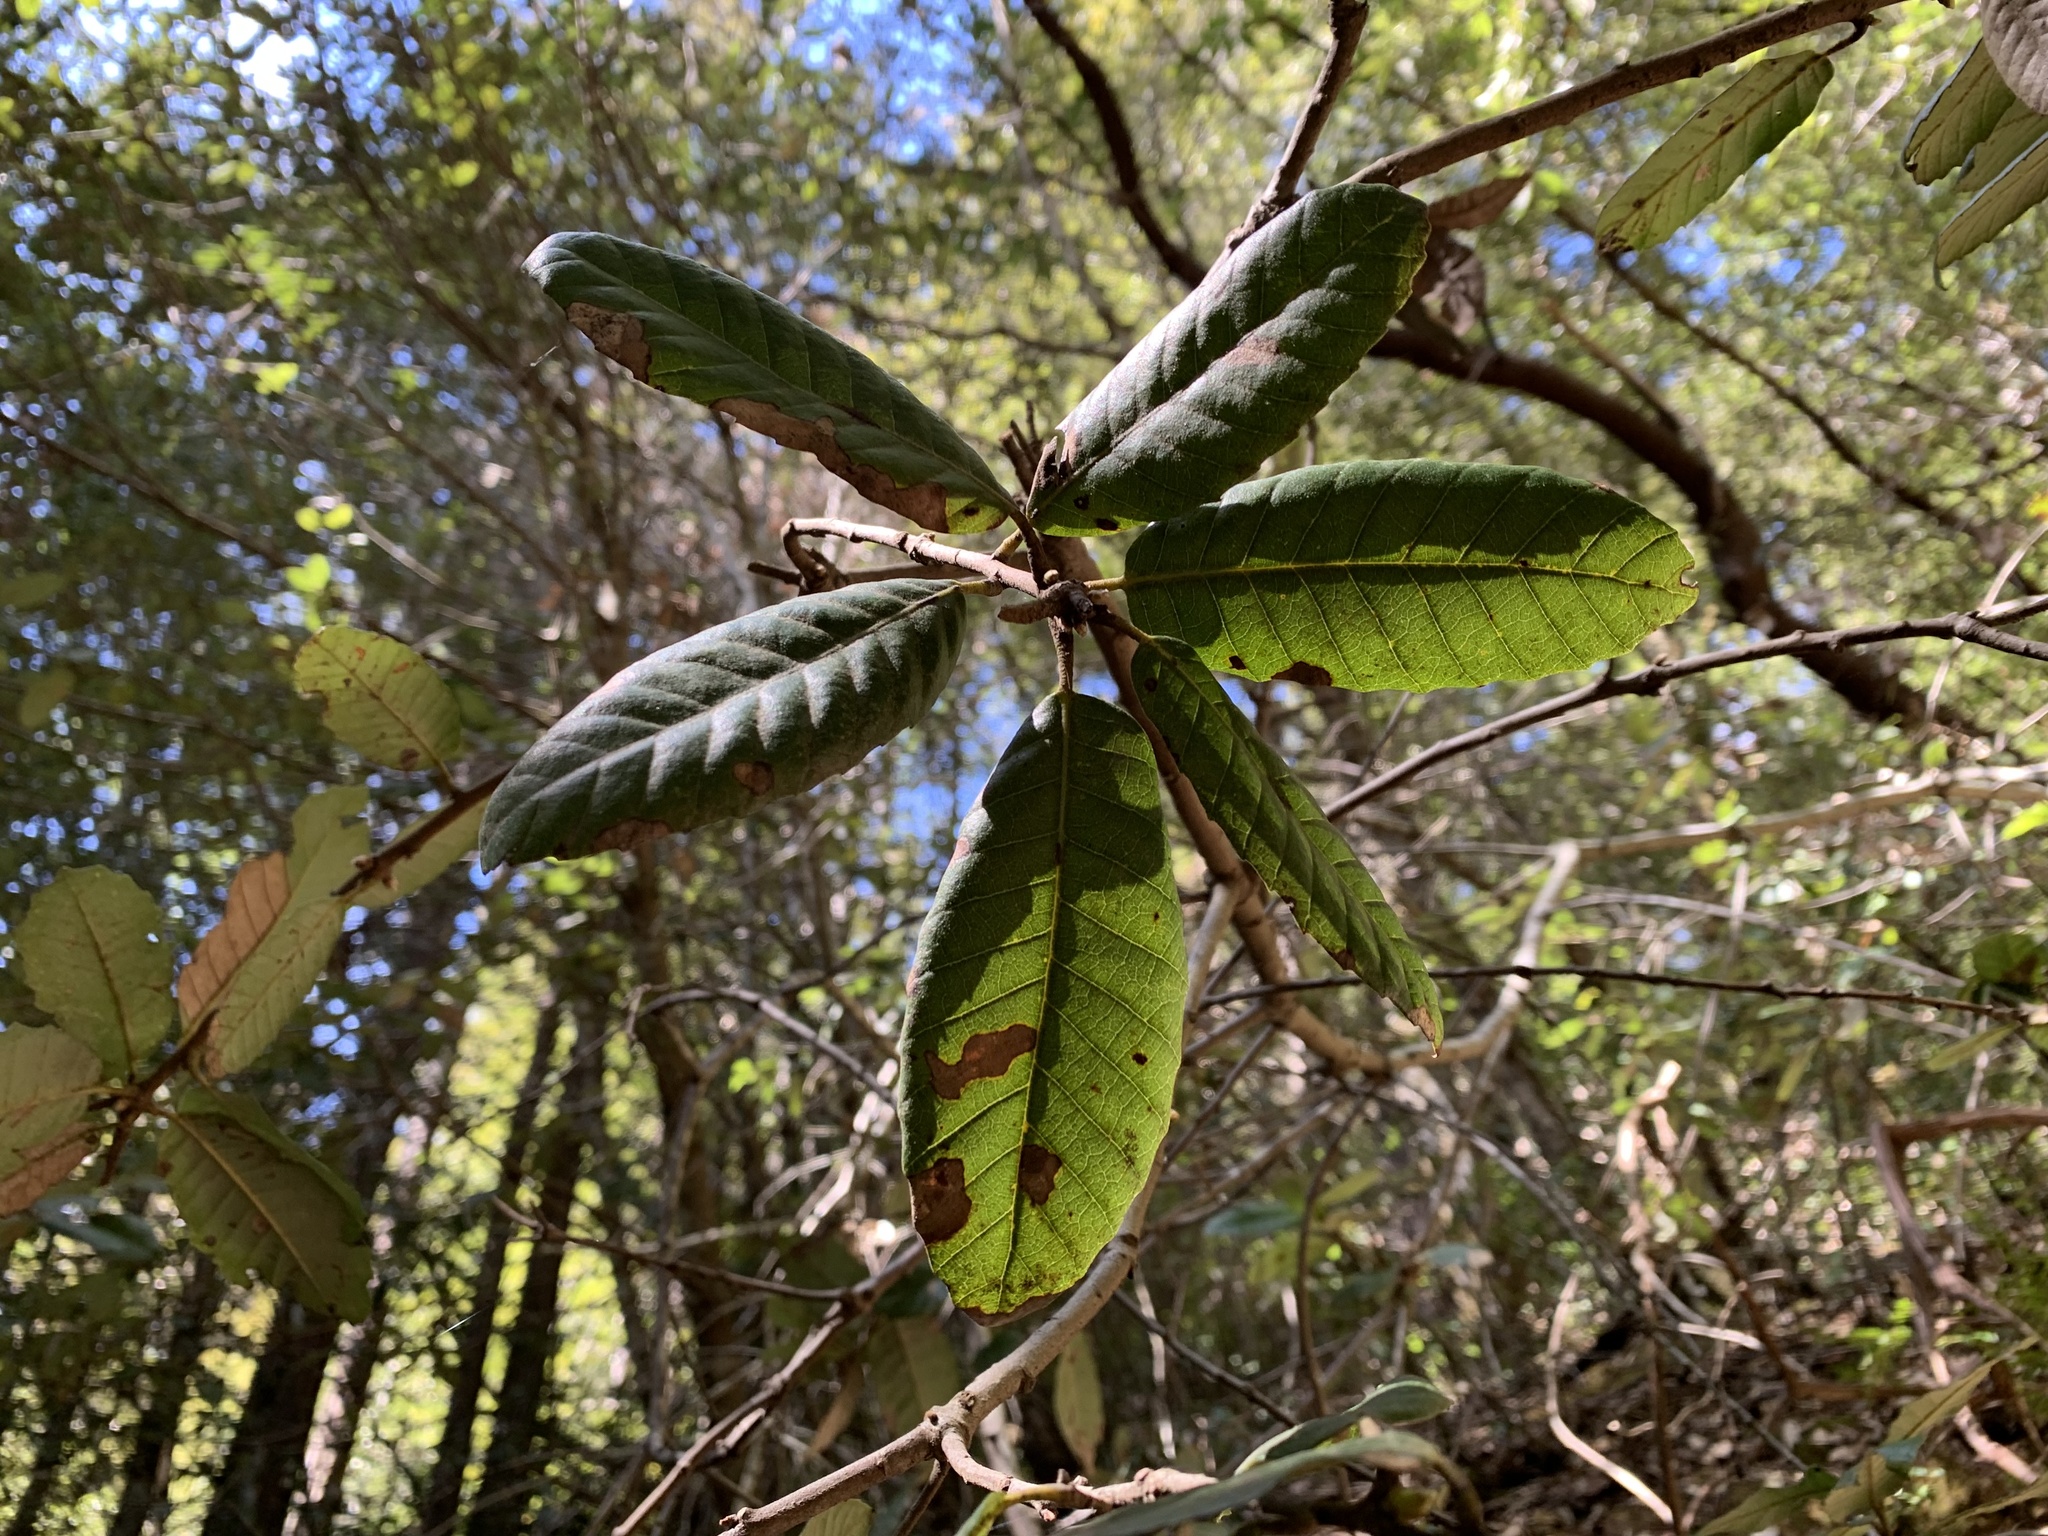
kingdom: Plantae
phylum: Tracheophyta
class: Magnoliopsida
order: Fagales
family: Fagaceae
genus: Notholithocarpus
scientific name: Notholithocarpus densiflorus
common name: Tan bark oak
